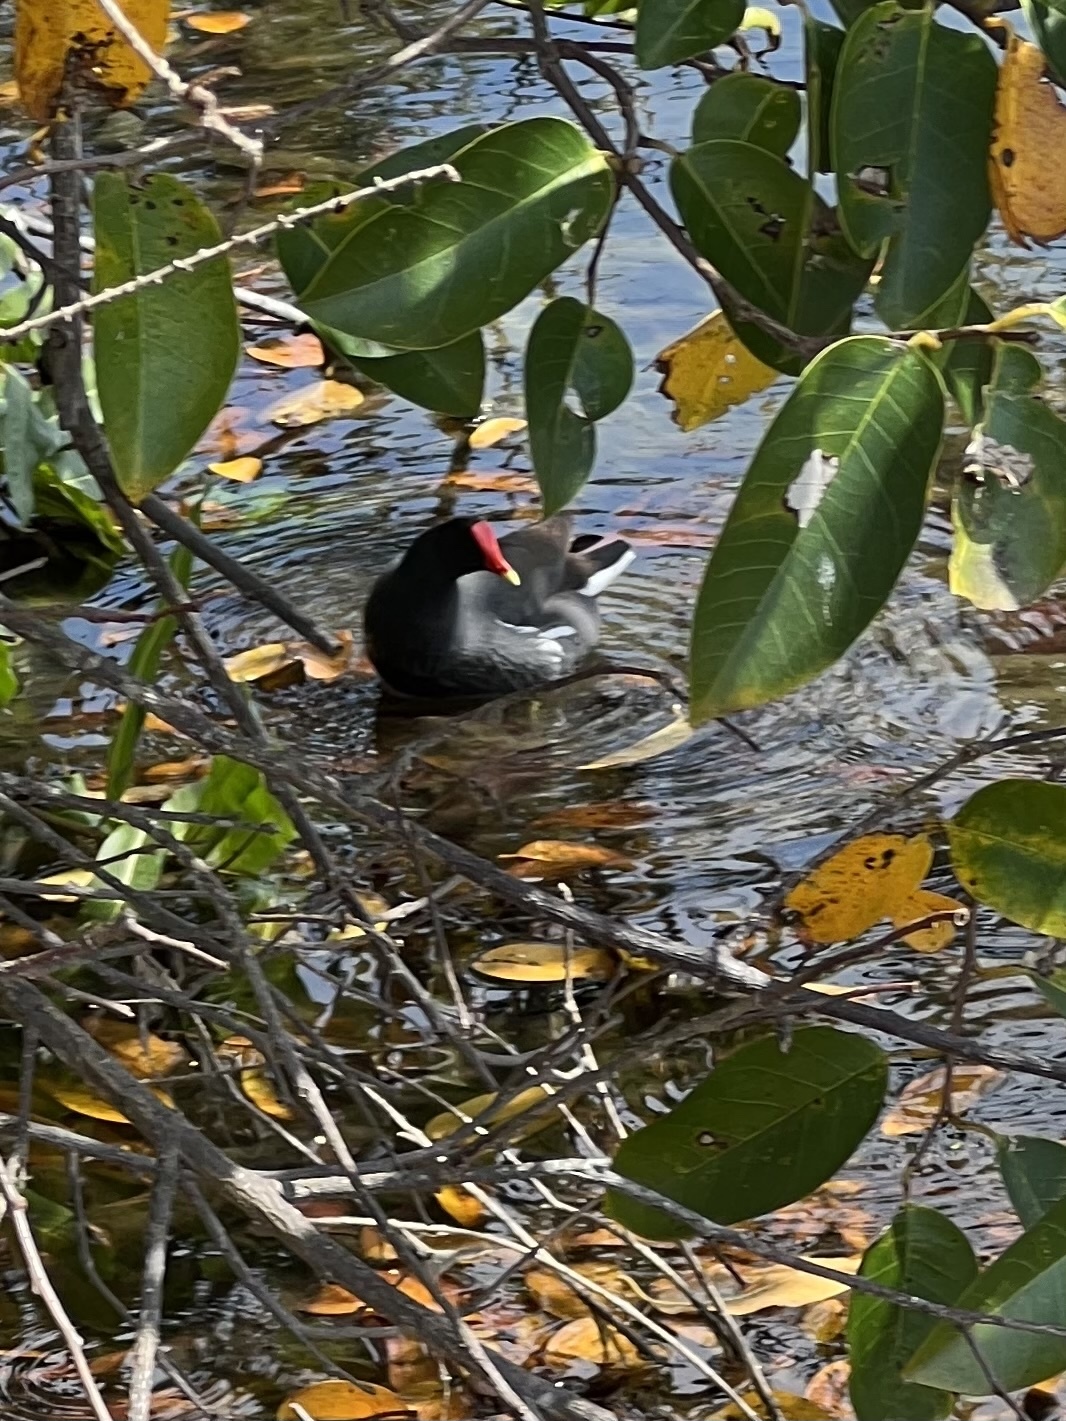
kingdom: Animalia
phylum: Chordata
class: Aves
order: Gruiformes
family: Rallidae
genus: Gallinula
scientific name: Gallinula chloropus
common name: Common moorhen
